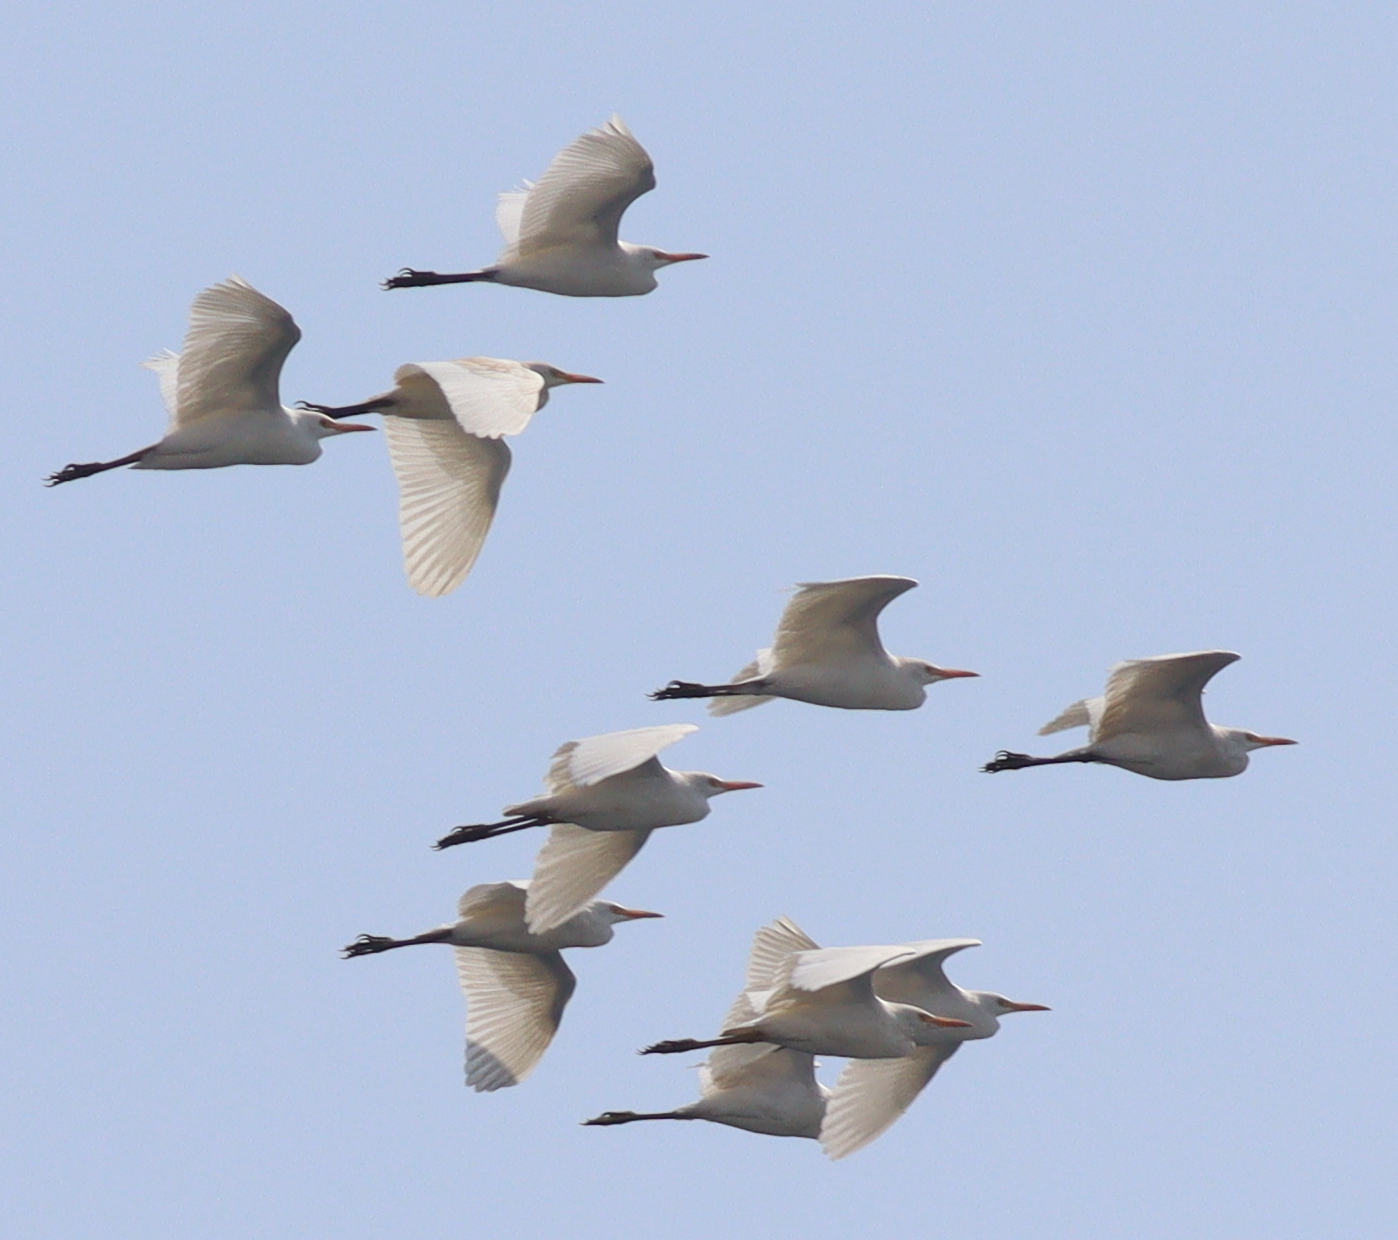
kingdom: Animalia
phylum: Chordata
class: Aves
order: Pelecaniformes
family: Ardeidae
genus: Bubulcus
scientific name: Bubulcus ibis
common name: Cattle egret
